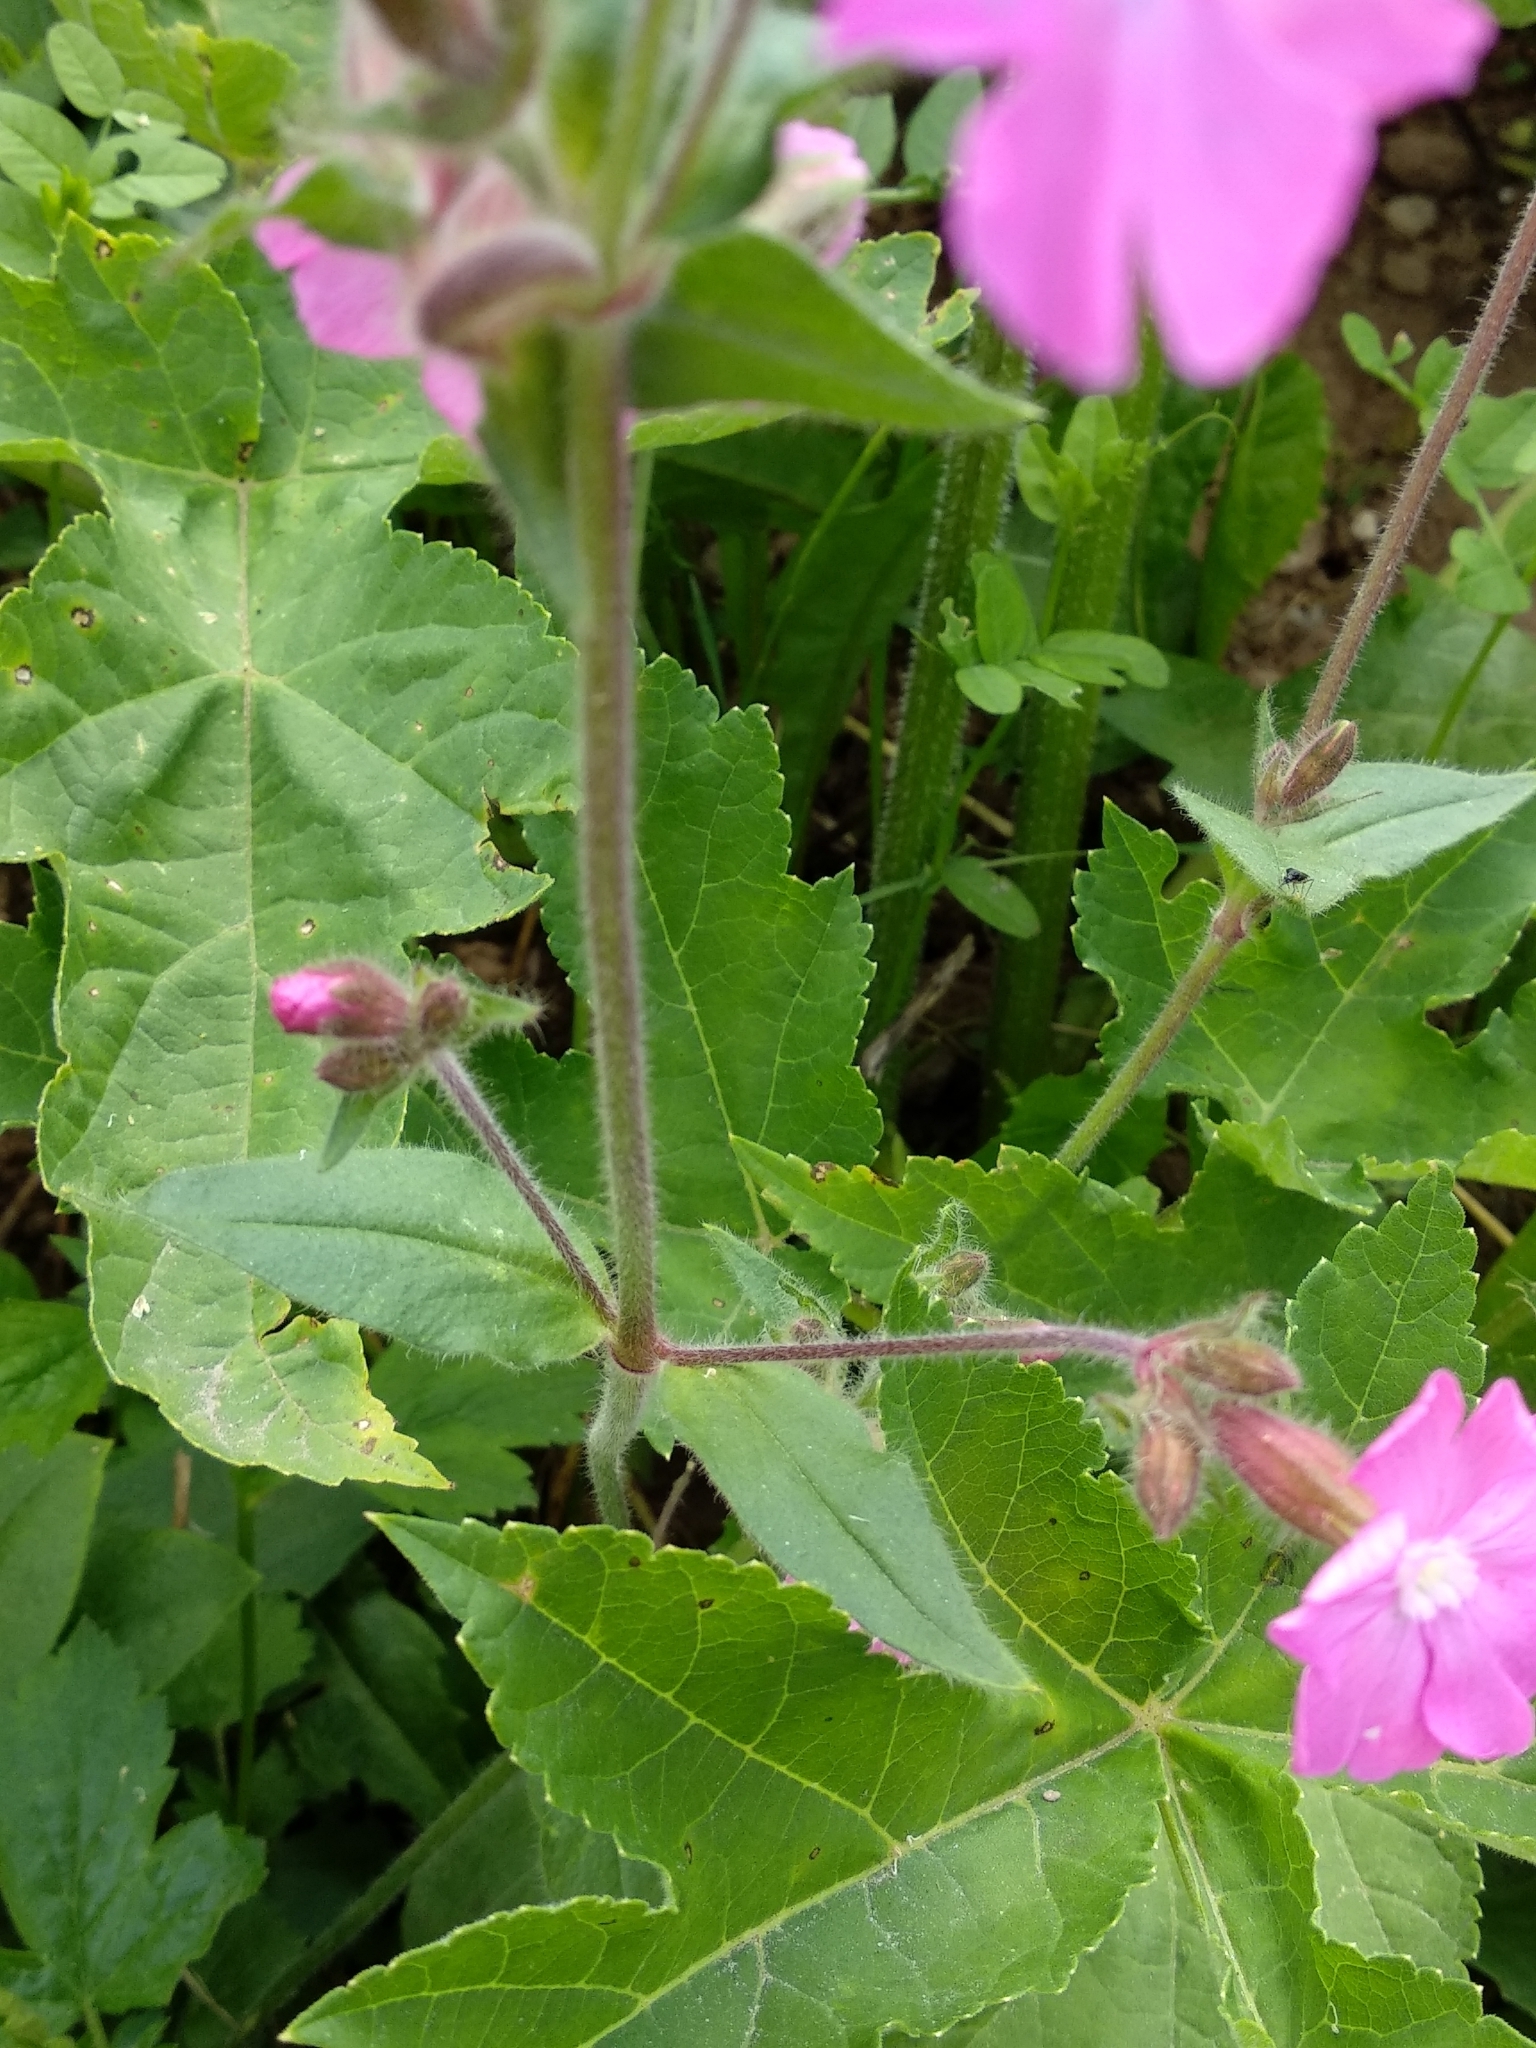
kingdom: Plantae
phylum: Tracheophyta
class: Magnoliopsida
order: Caryophyllales
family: Caryophyllaceae
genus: Silene
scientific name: Silene dioica
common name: Red campion
